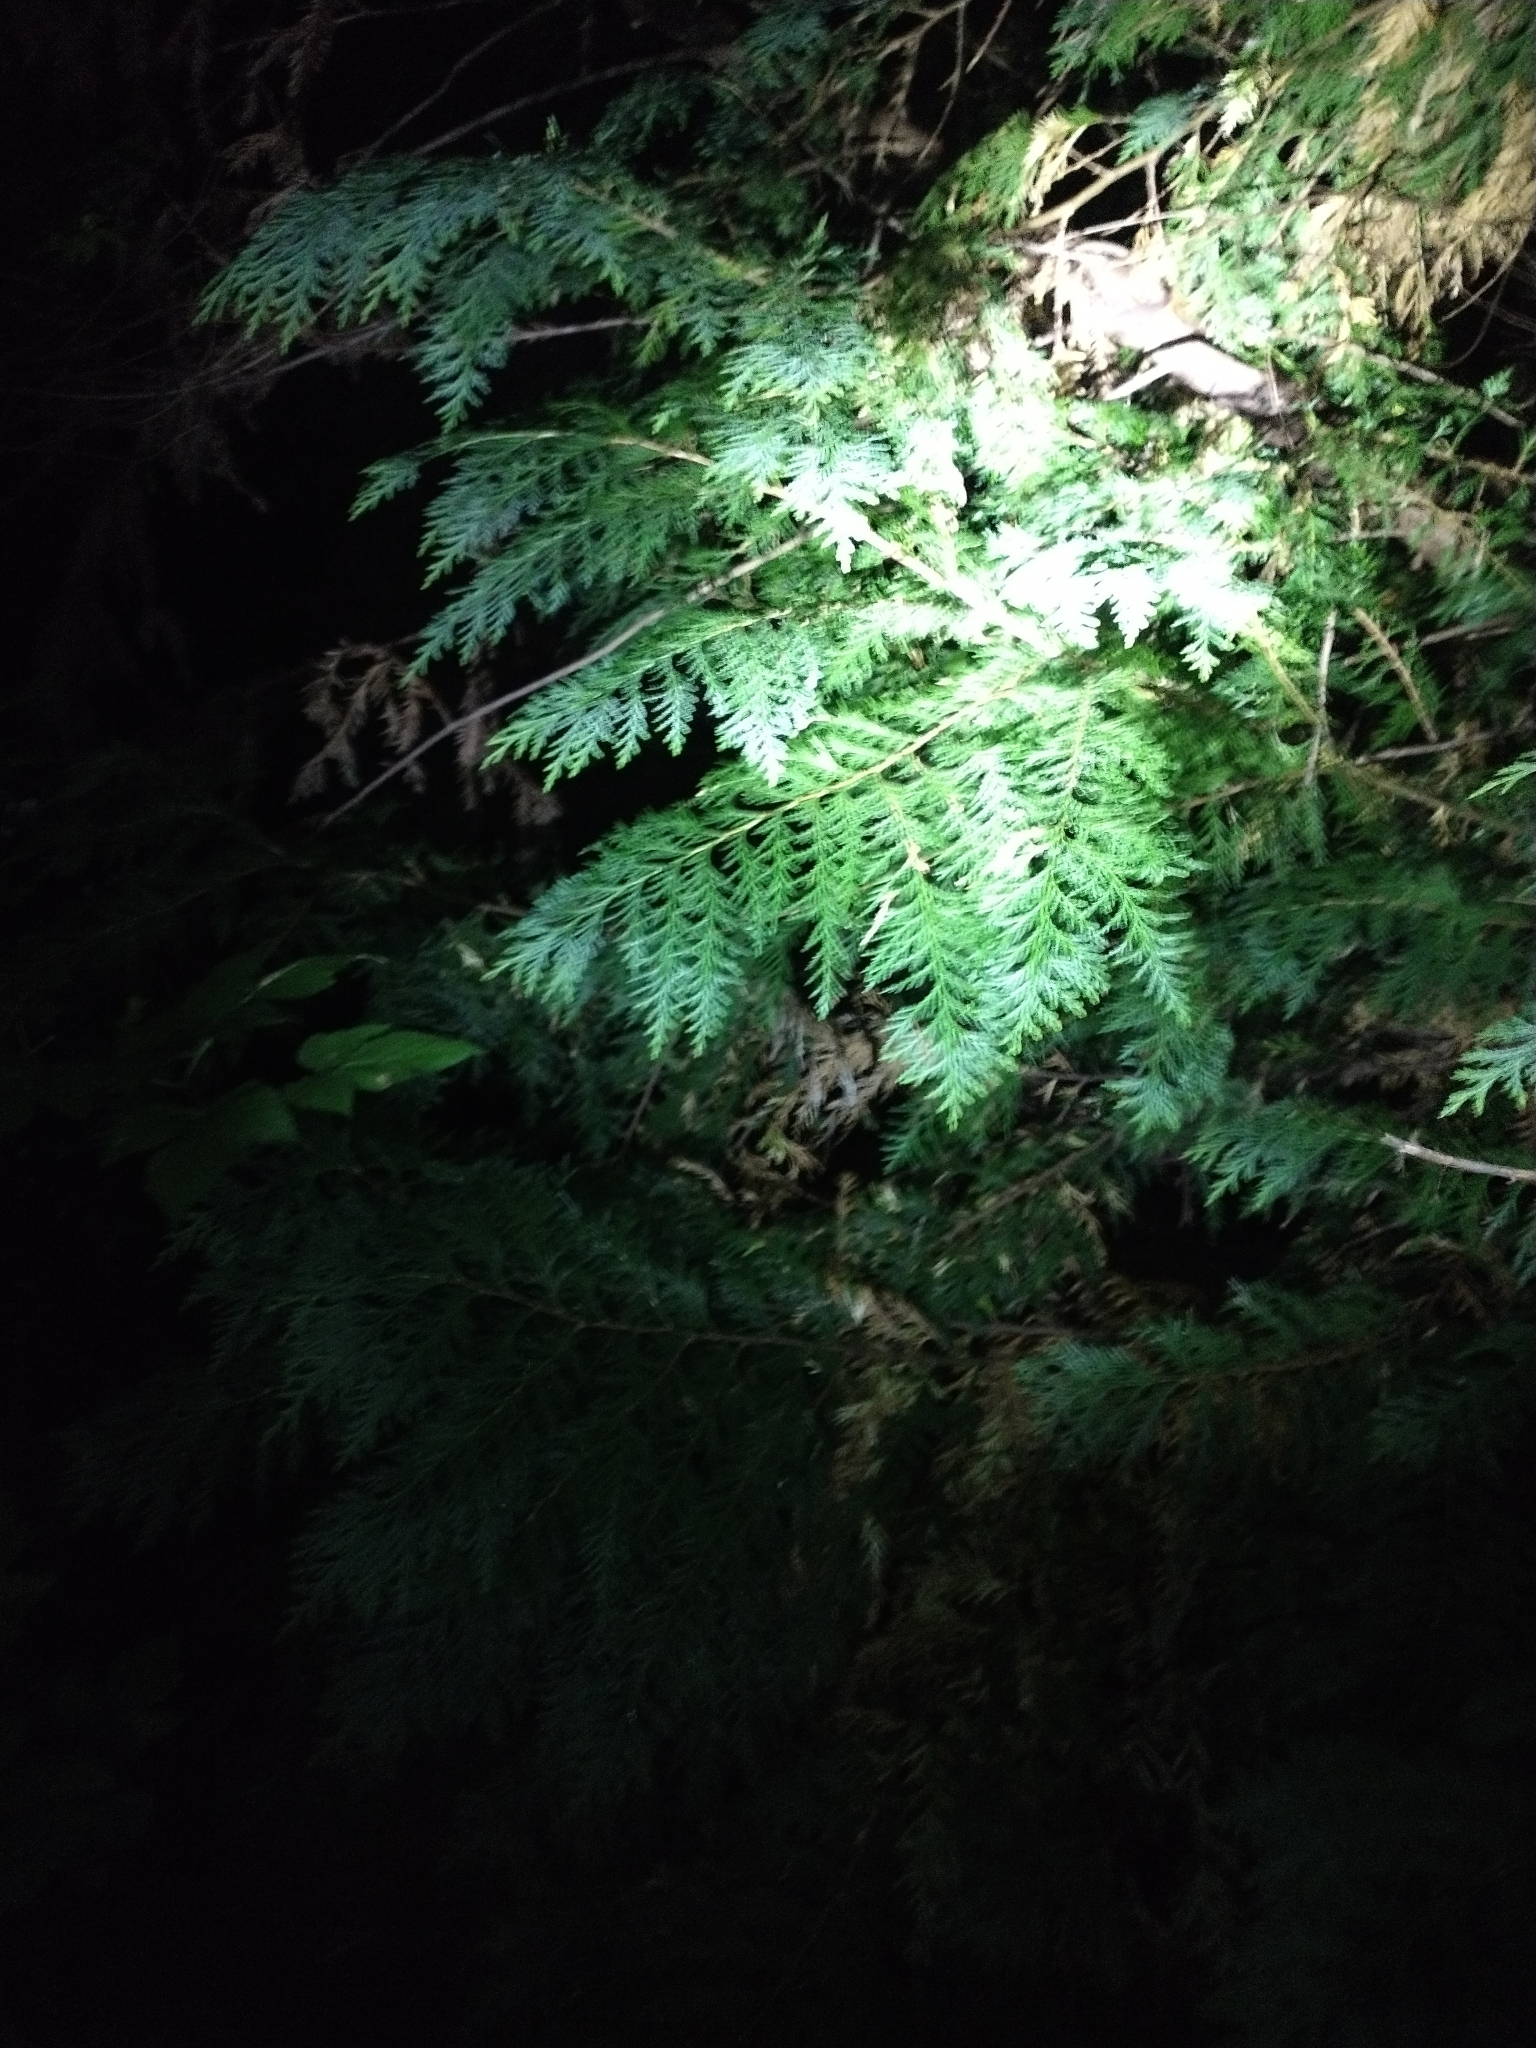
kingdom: Plantae
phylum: Tracheophyta
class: Pinopsida
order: Pinales
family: Cupressaceae
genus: Chamaecyparis
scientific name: Chamaecyparis lawsoniana
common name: Lawson's cypress
